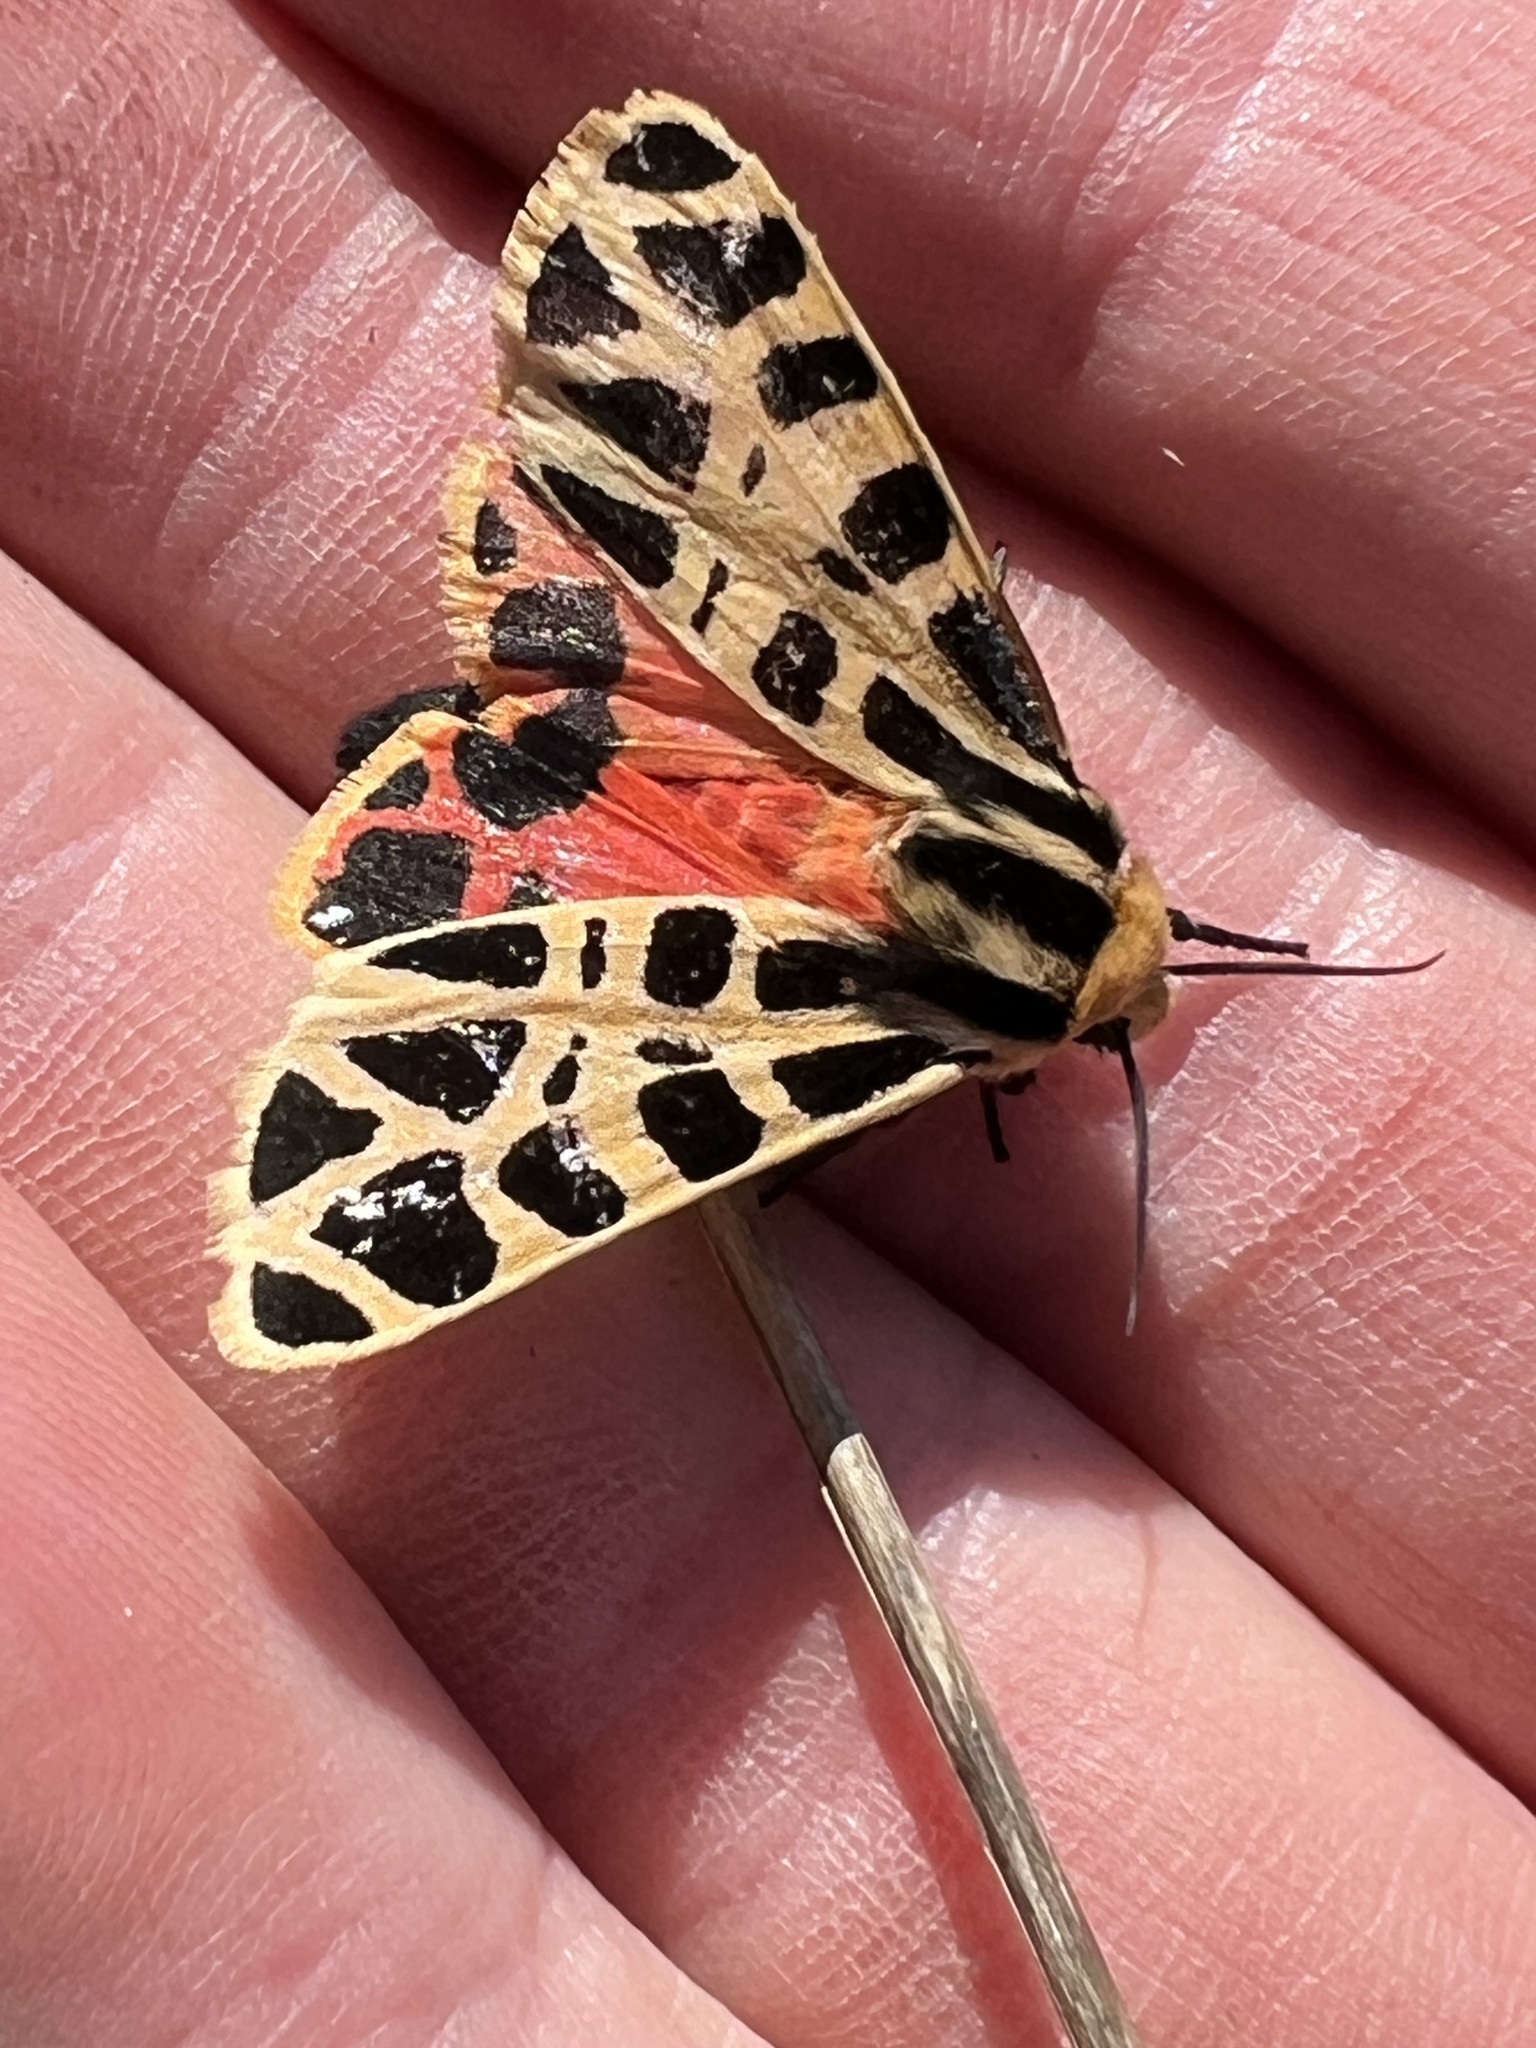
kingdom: Animalia
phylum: Arthropoda
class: Insecta
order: Lepidoptera
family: Erebidae
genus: Apantesis
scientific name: Apantesis
